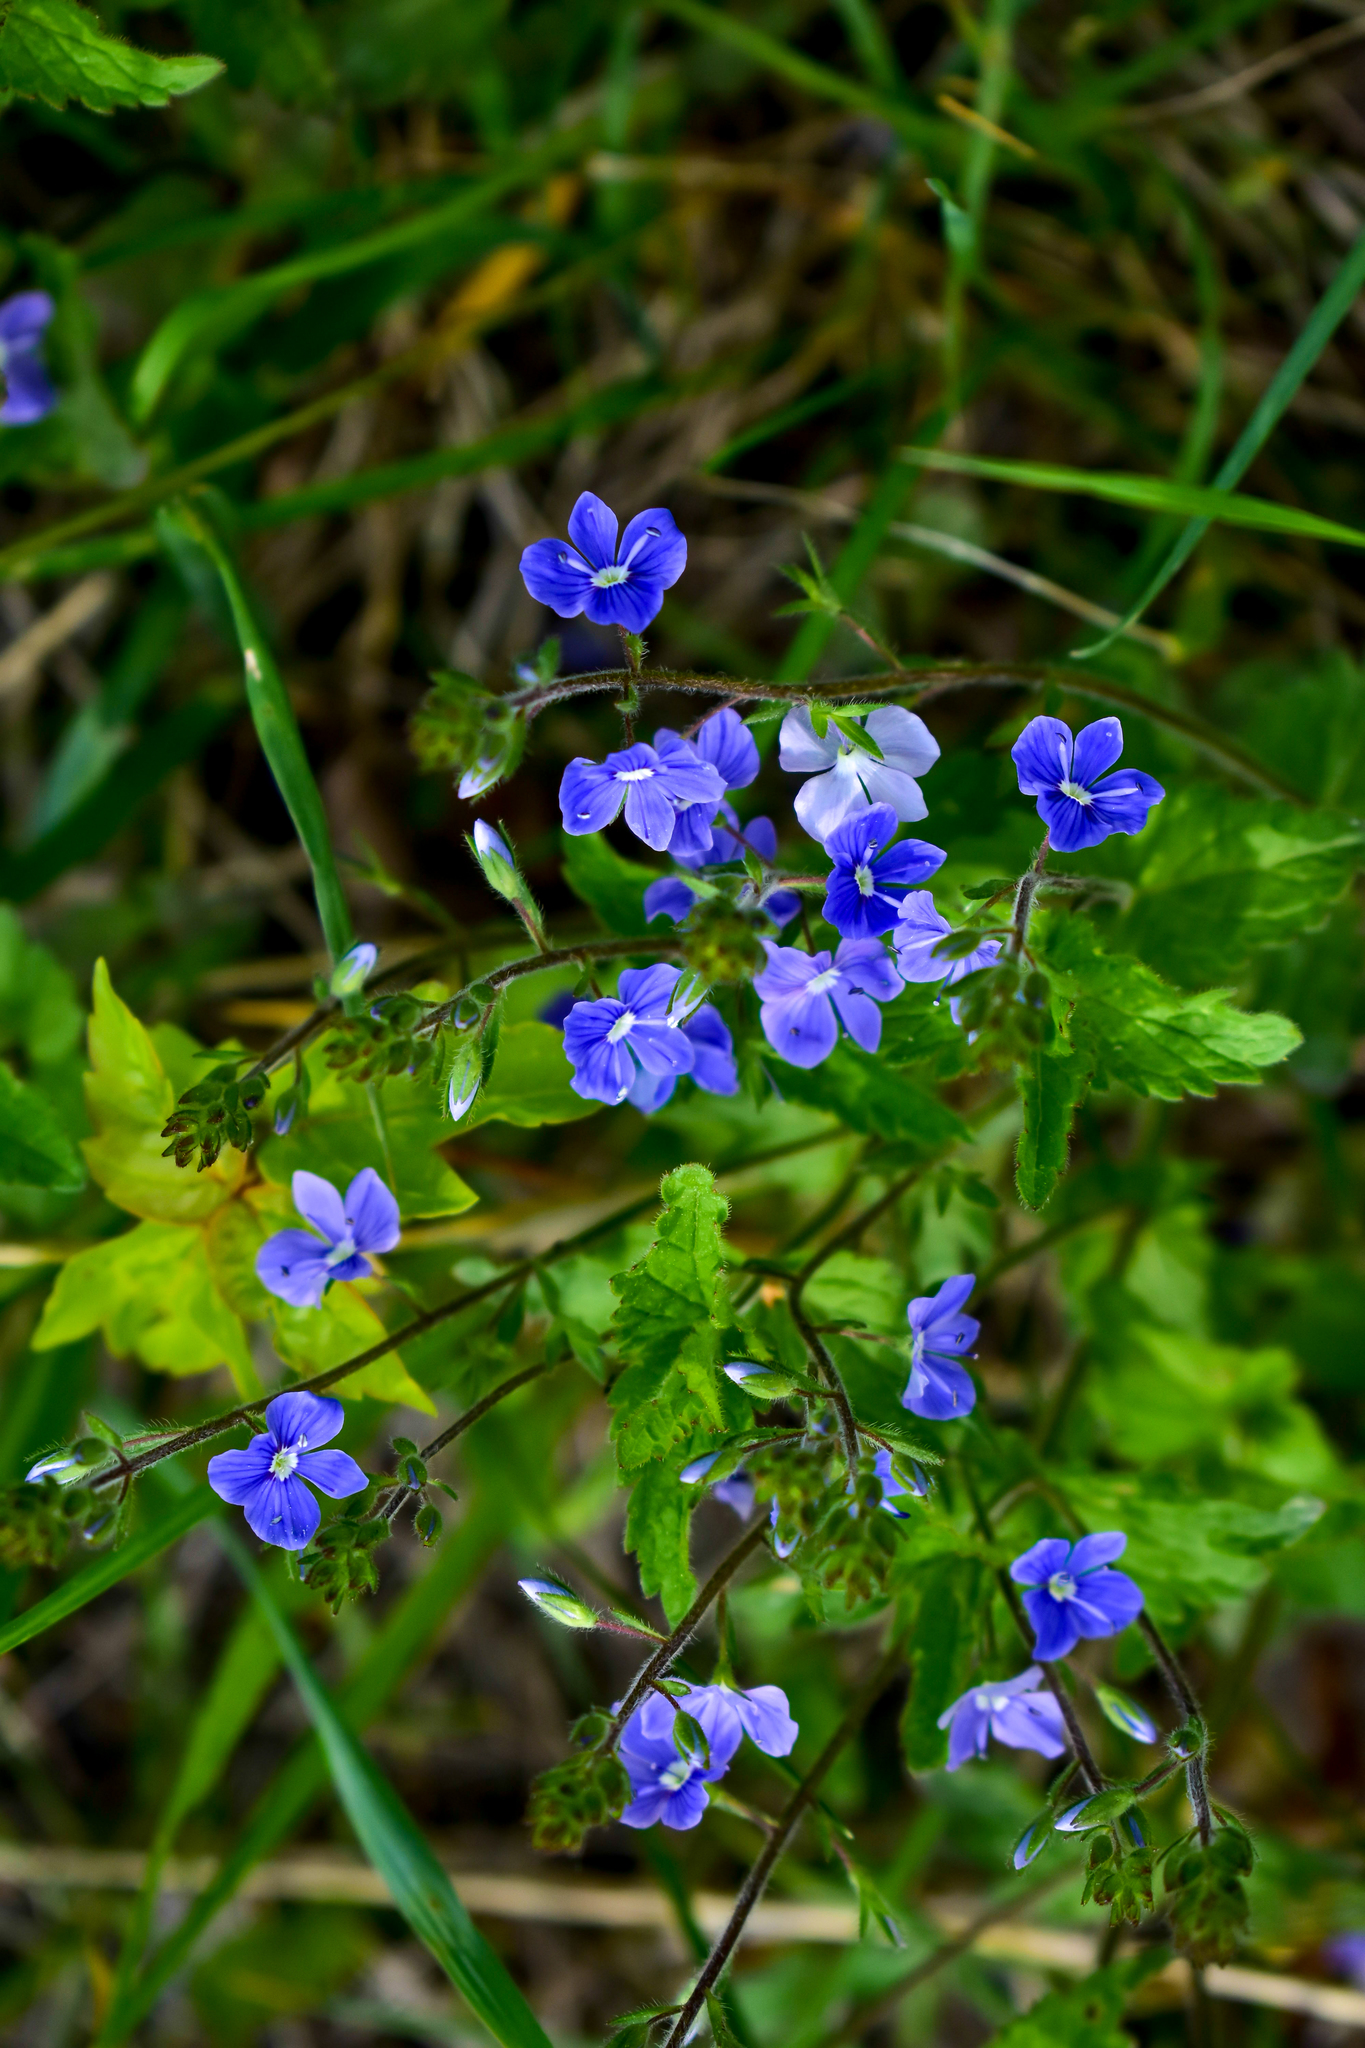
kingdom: Plantae
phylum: Tracheophyta
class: Magnoliopsida
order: Lamiales
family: Plantaginaceae
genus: Veronica
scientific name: Veronica chamaedrys
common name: Germander speedwell
